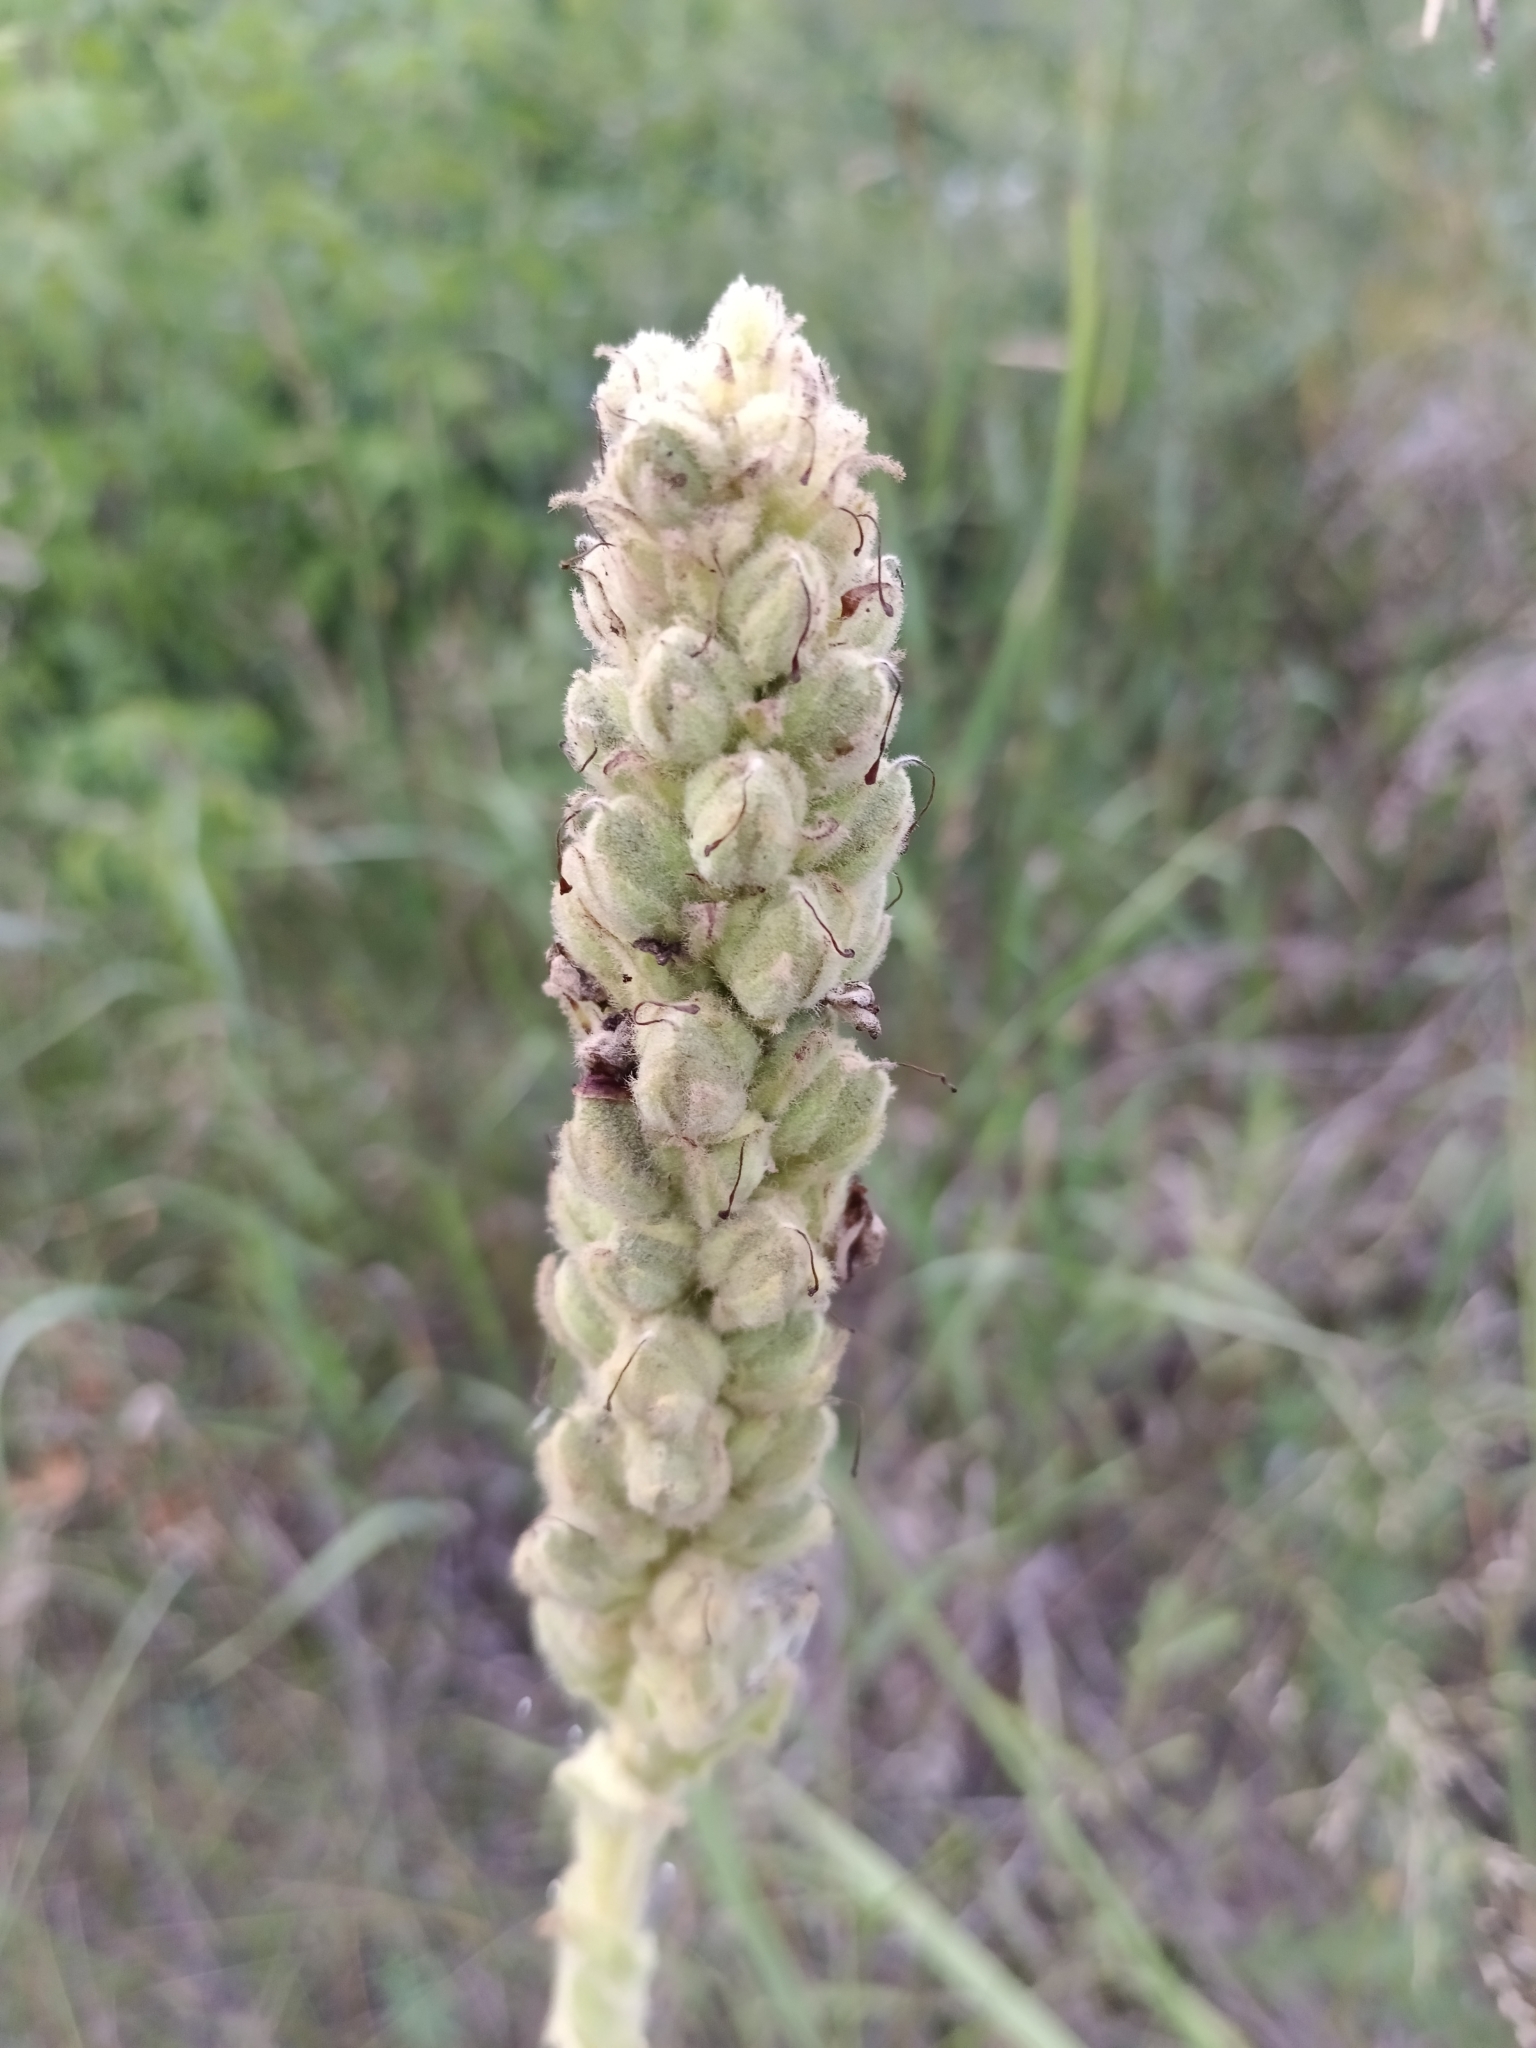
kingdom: Plantae
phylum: Tracheophyta
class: Magnoliopsida
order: Lamiales
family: Scrophulariaceae
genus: Verbascum
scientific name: Verbascum thapsus
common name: Common mullein
